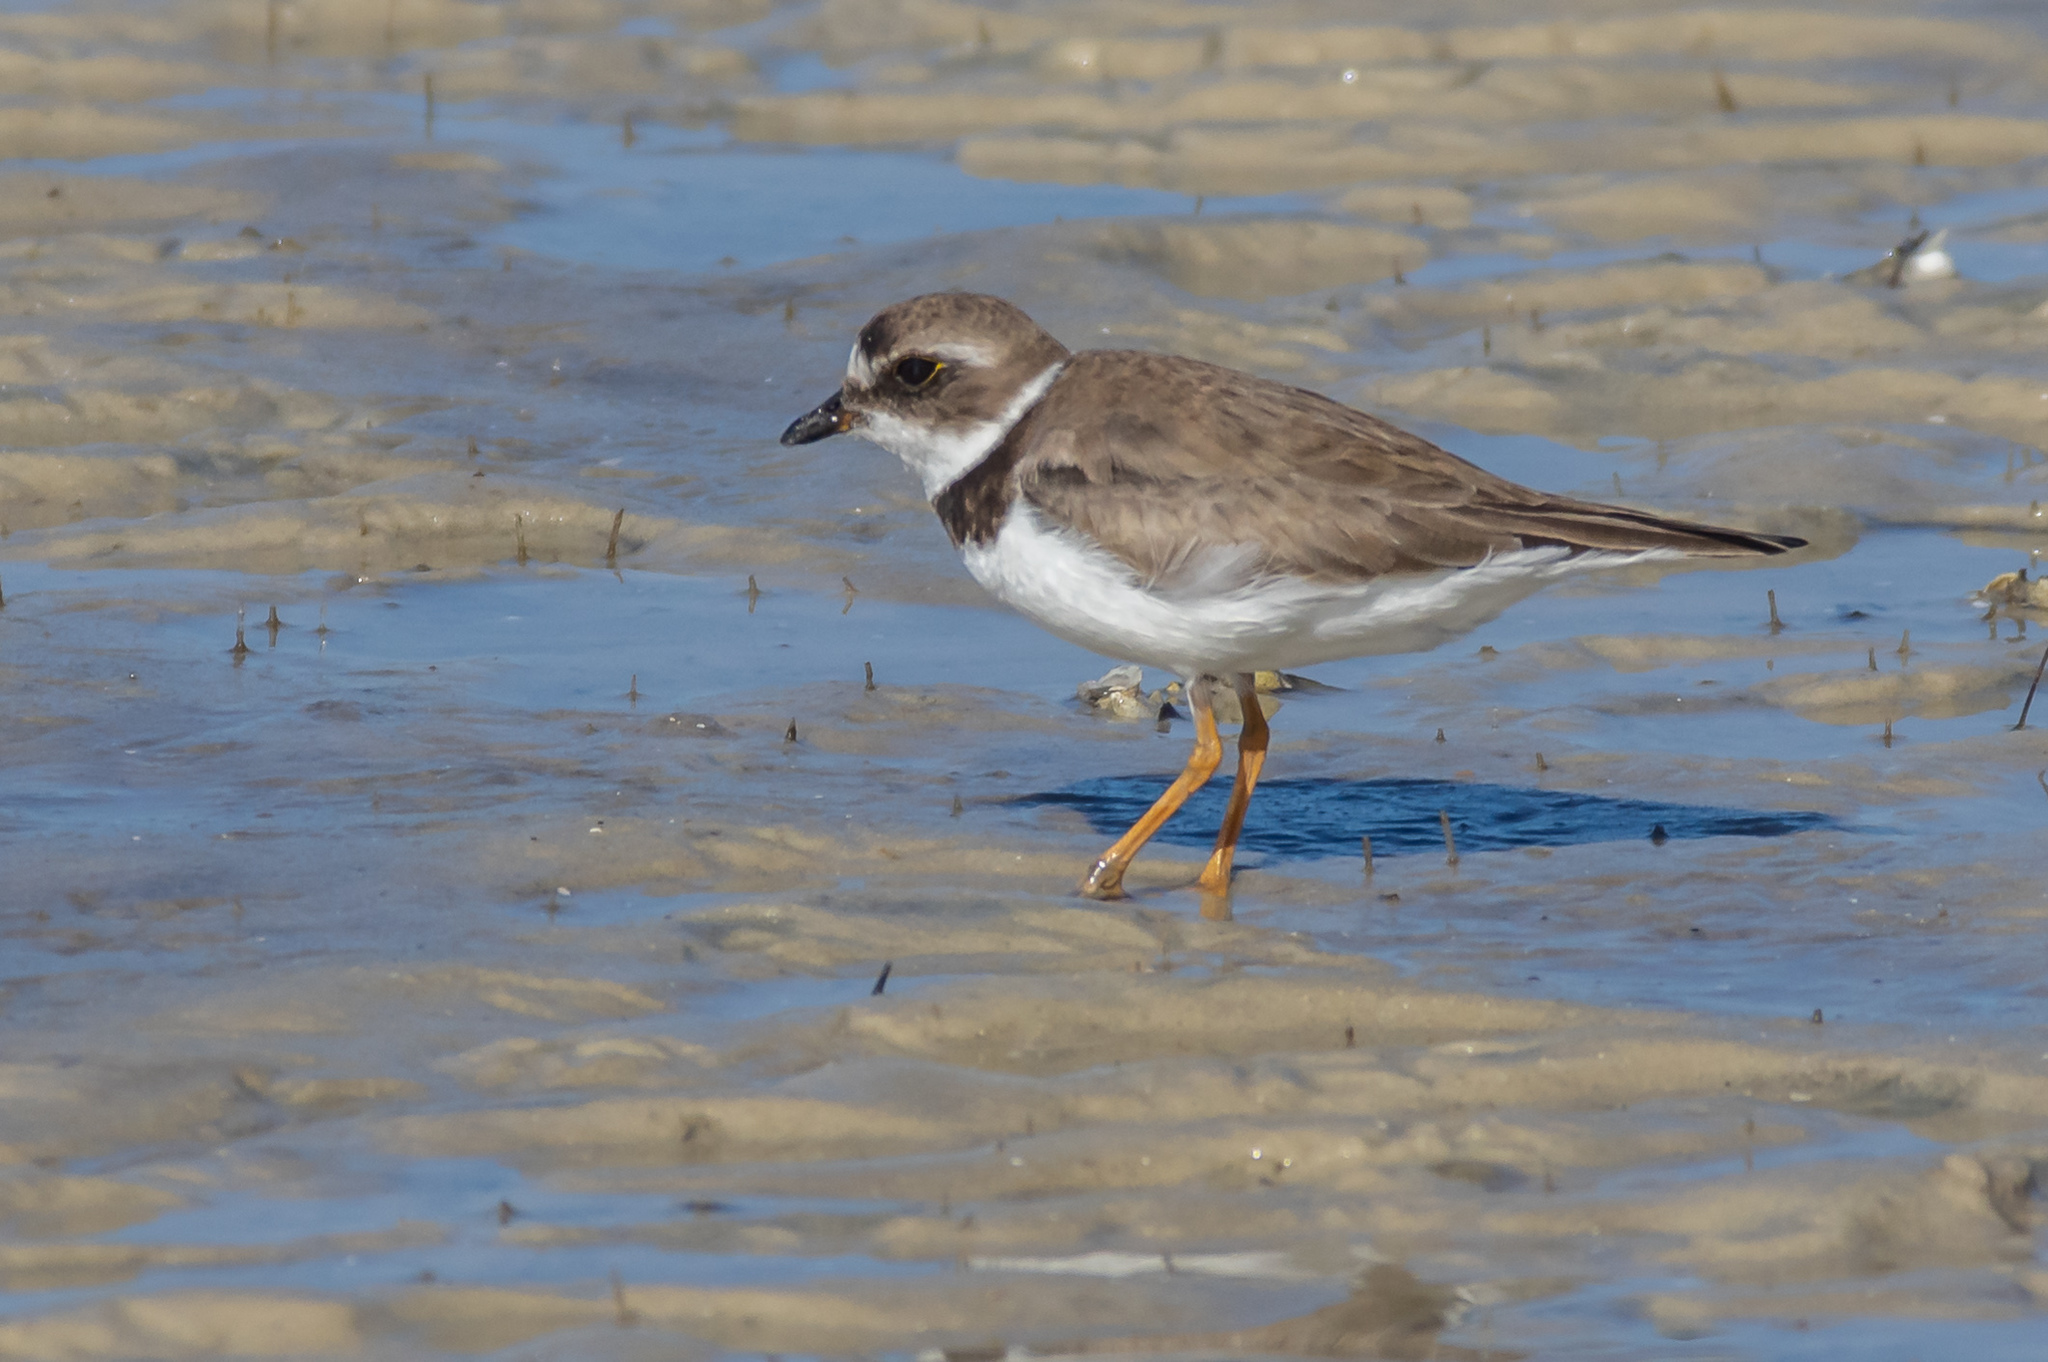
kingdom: Animalia
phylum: Chordata
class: Aves
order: Charadriiformes
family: Charadriidae
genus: Charadrius
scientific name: Charadrius semipalmatus
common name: Semipalmated plover
